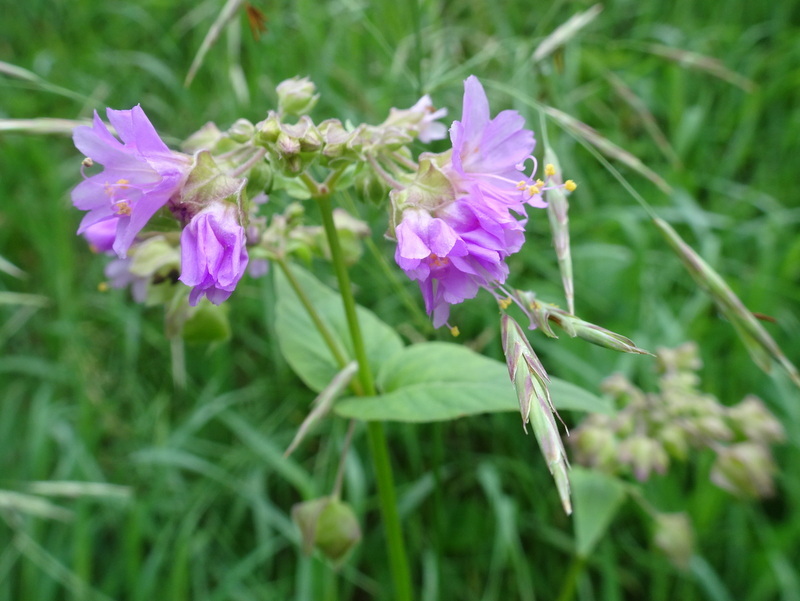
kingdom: Plantae
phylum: Tracheophyta
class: Magnoliopsida
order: Caryophyllales
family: Nyctaginaceae
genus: Mirabilis
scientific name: Mirabilis nyctaginea
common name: Umbrella wort
